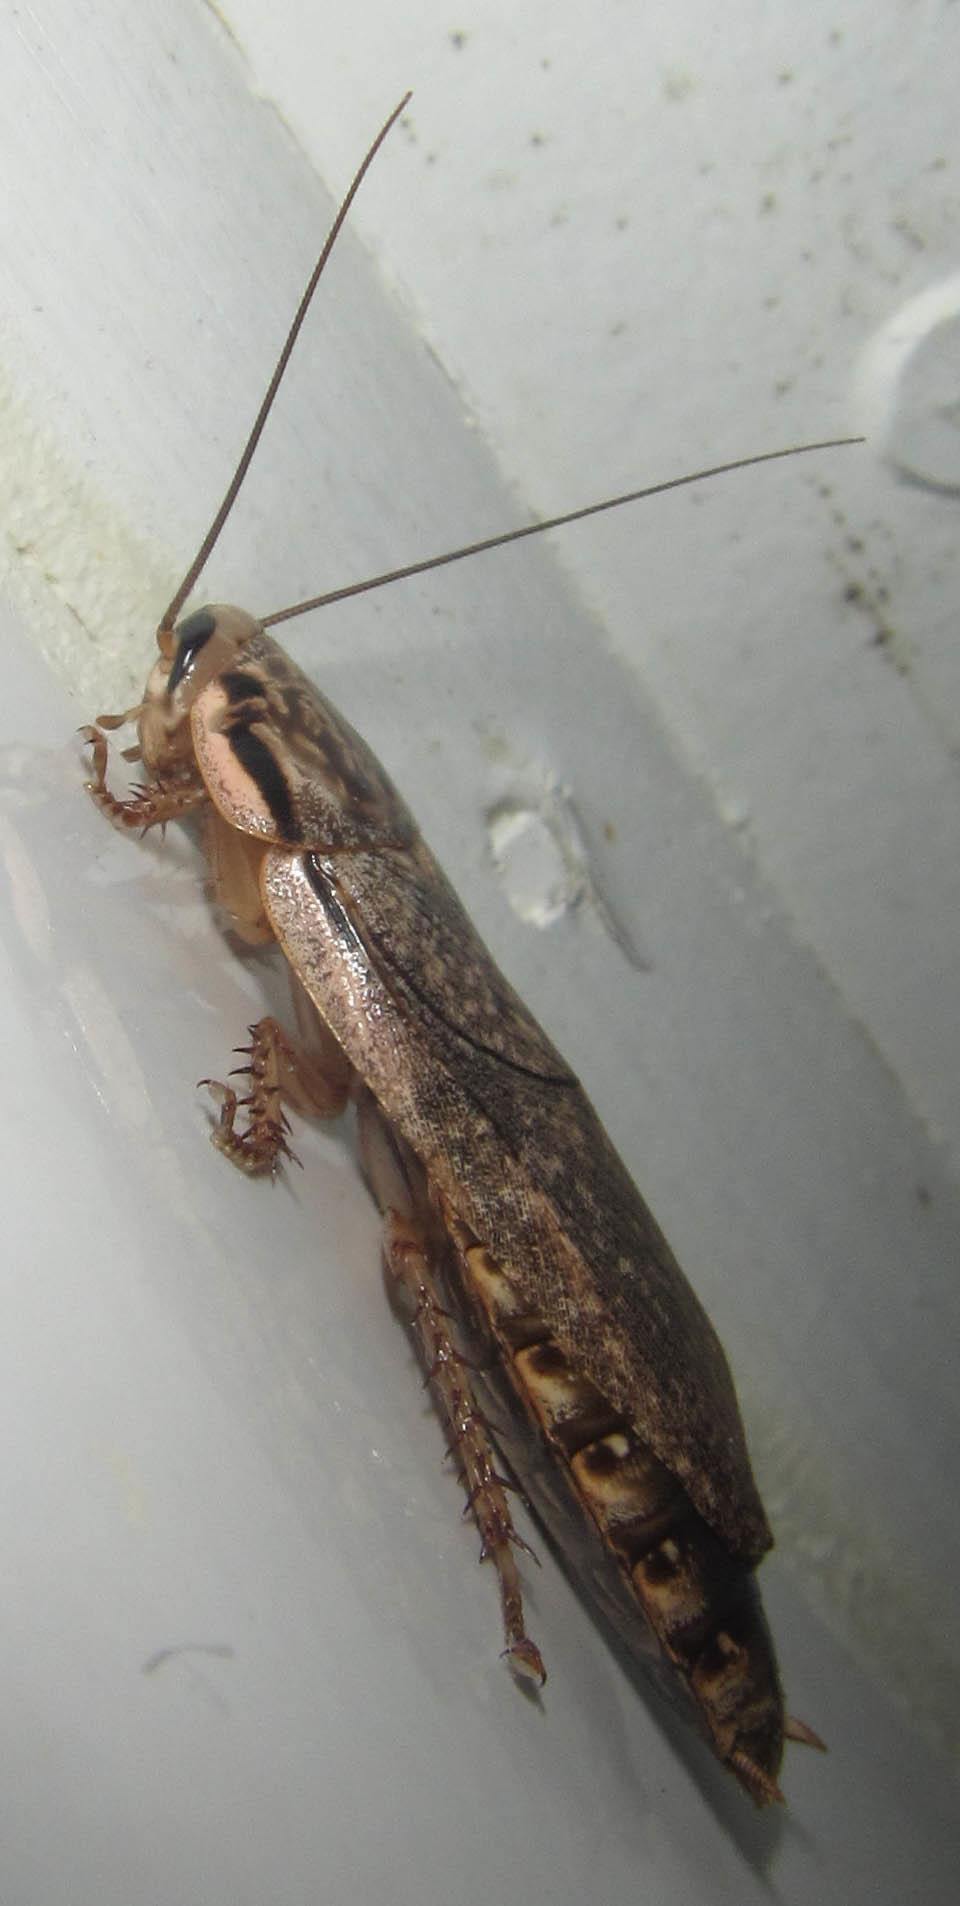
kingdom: Animalia
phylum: Arthropoda
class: Insecta
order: Blattodea
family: Blaberidae
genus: Nauphoeta
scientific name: Nauphoeta cinerea
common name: Lobster cockroach
